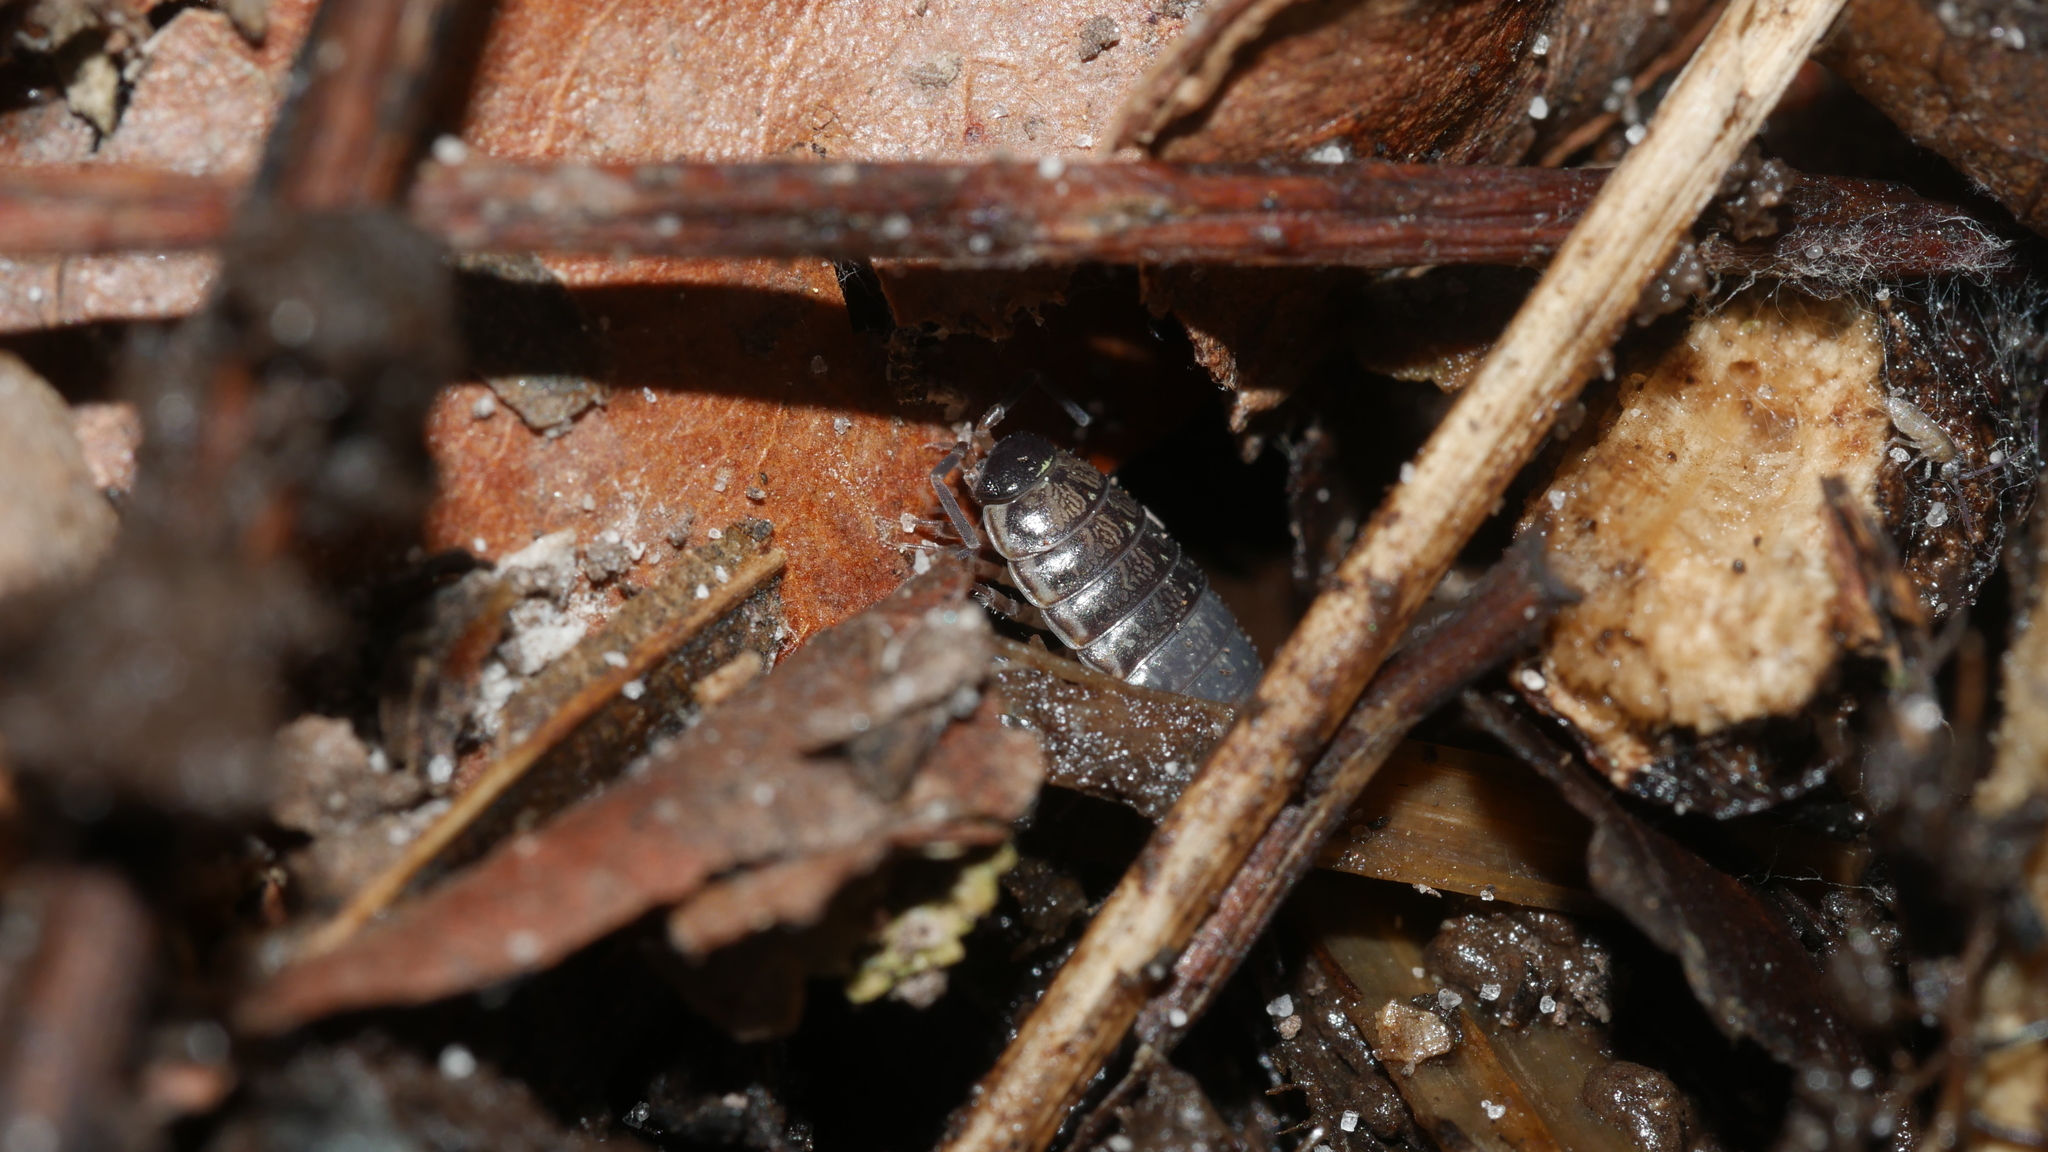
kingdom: Animalia
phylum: Arthropoda
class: Malacostraca
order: Isopoda
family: Philosciidae
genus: Philoscia
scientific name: Philoscia muscorum
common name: Common striped woodlouse
